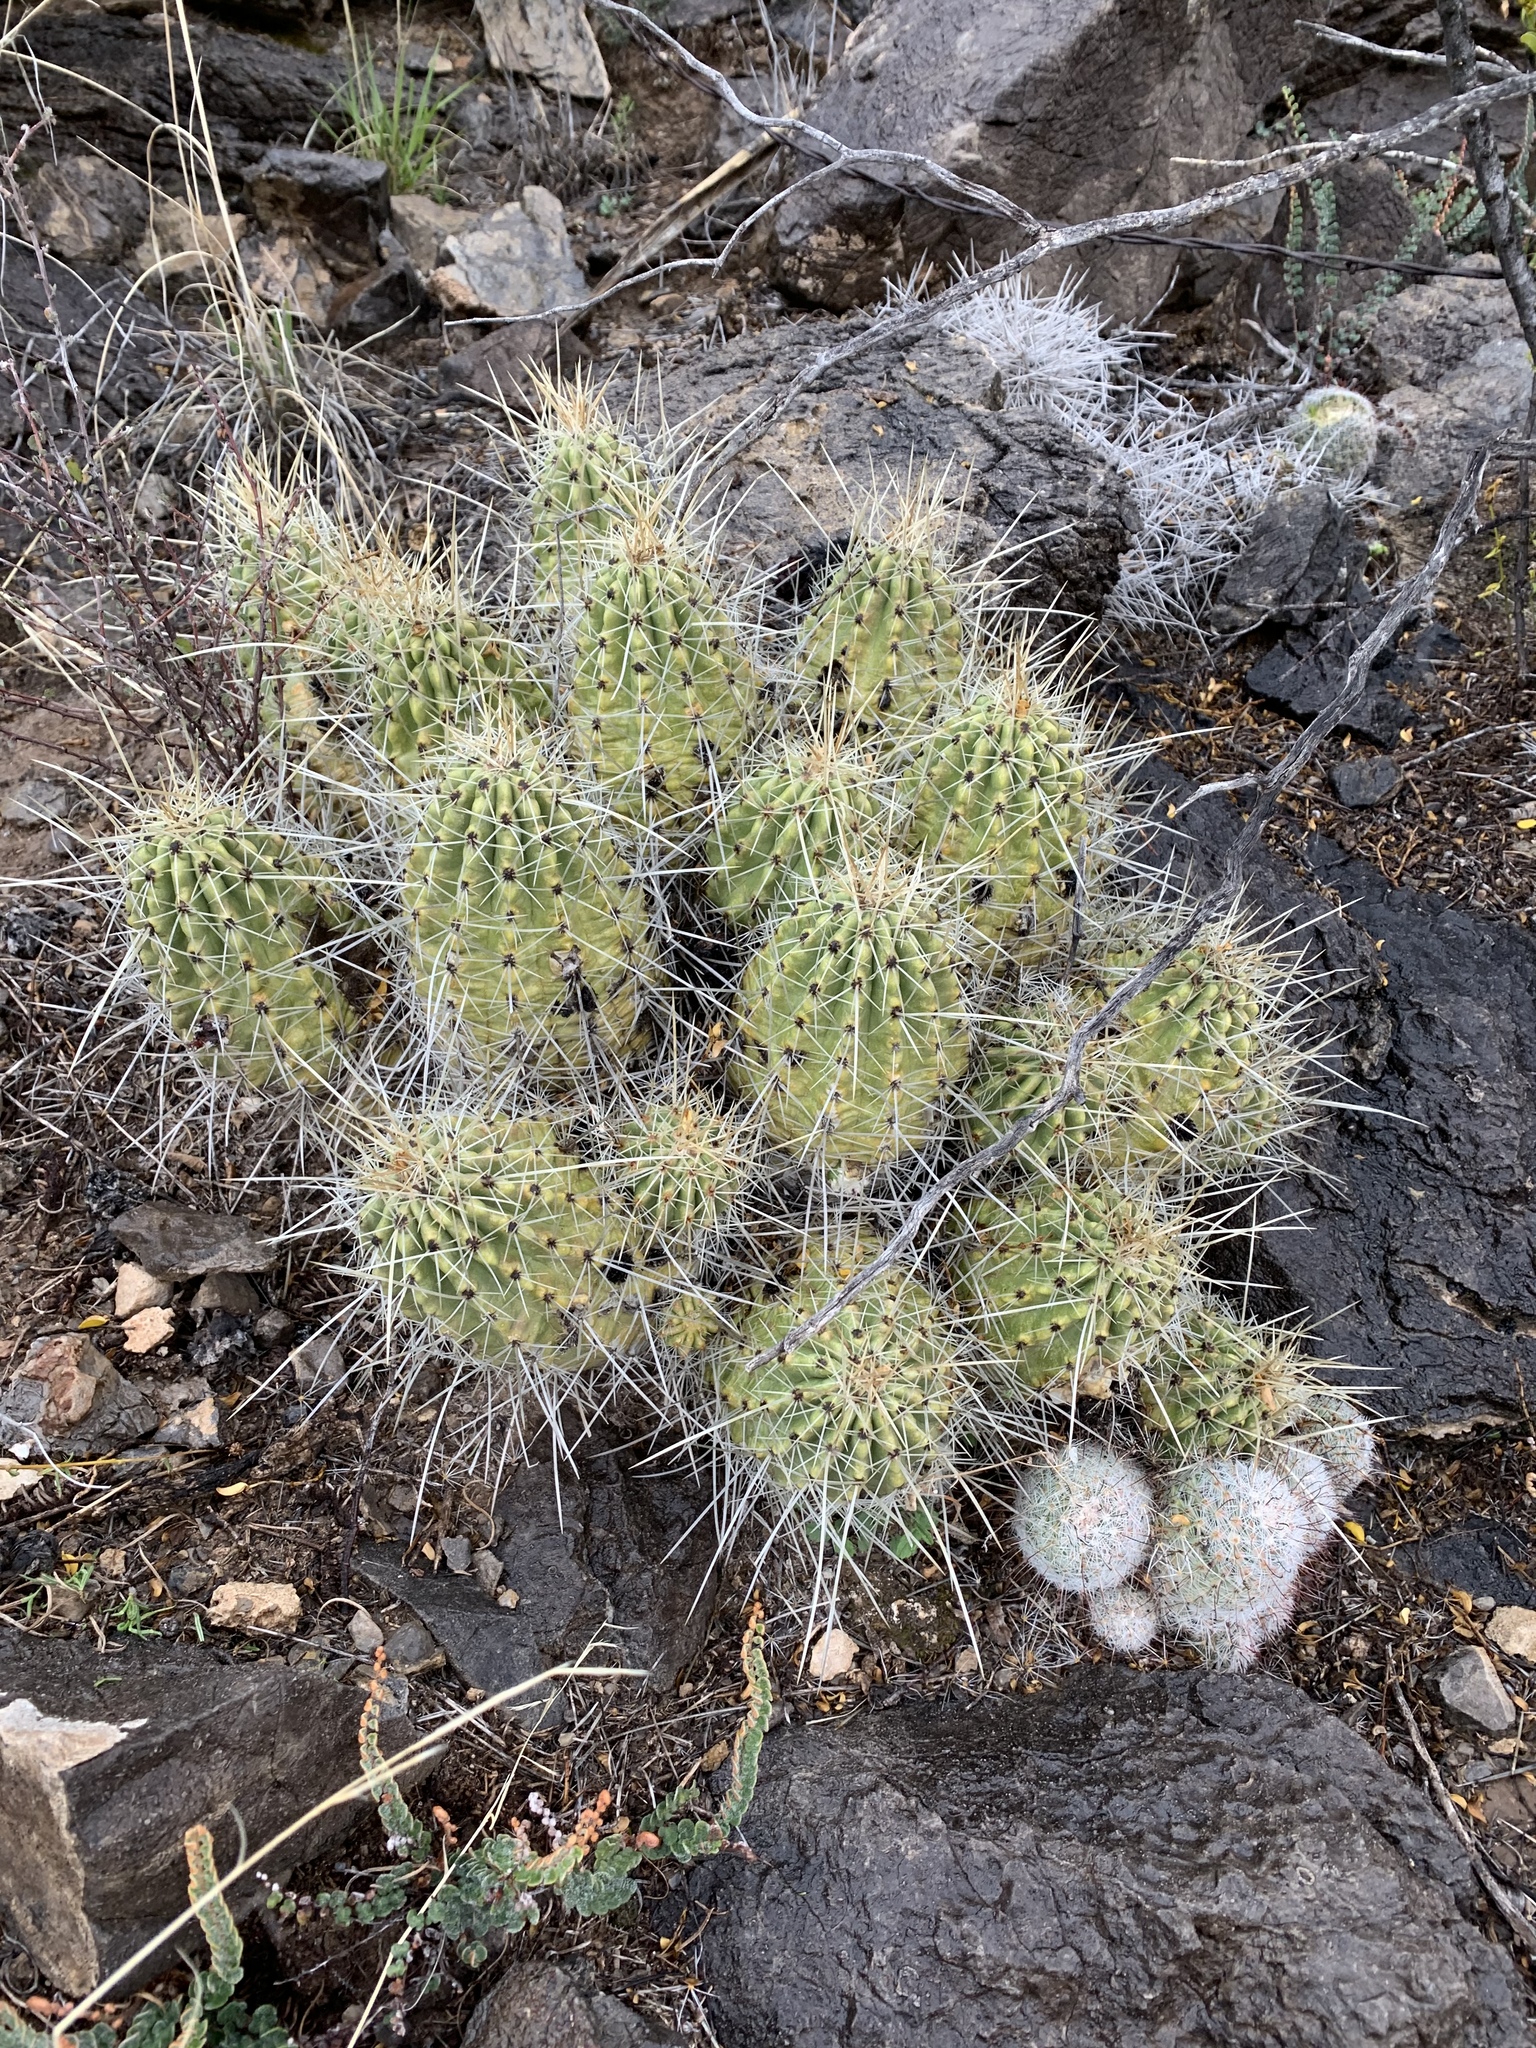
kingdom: Plantae
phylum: Tracheophyta
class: Magnoliopsida
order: Caryophyllales
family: Cactaceae
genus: Echinocereus
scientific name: Echinocereus stramineus
